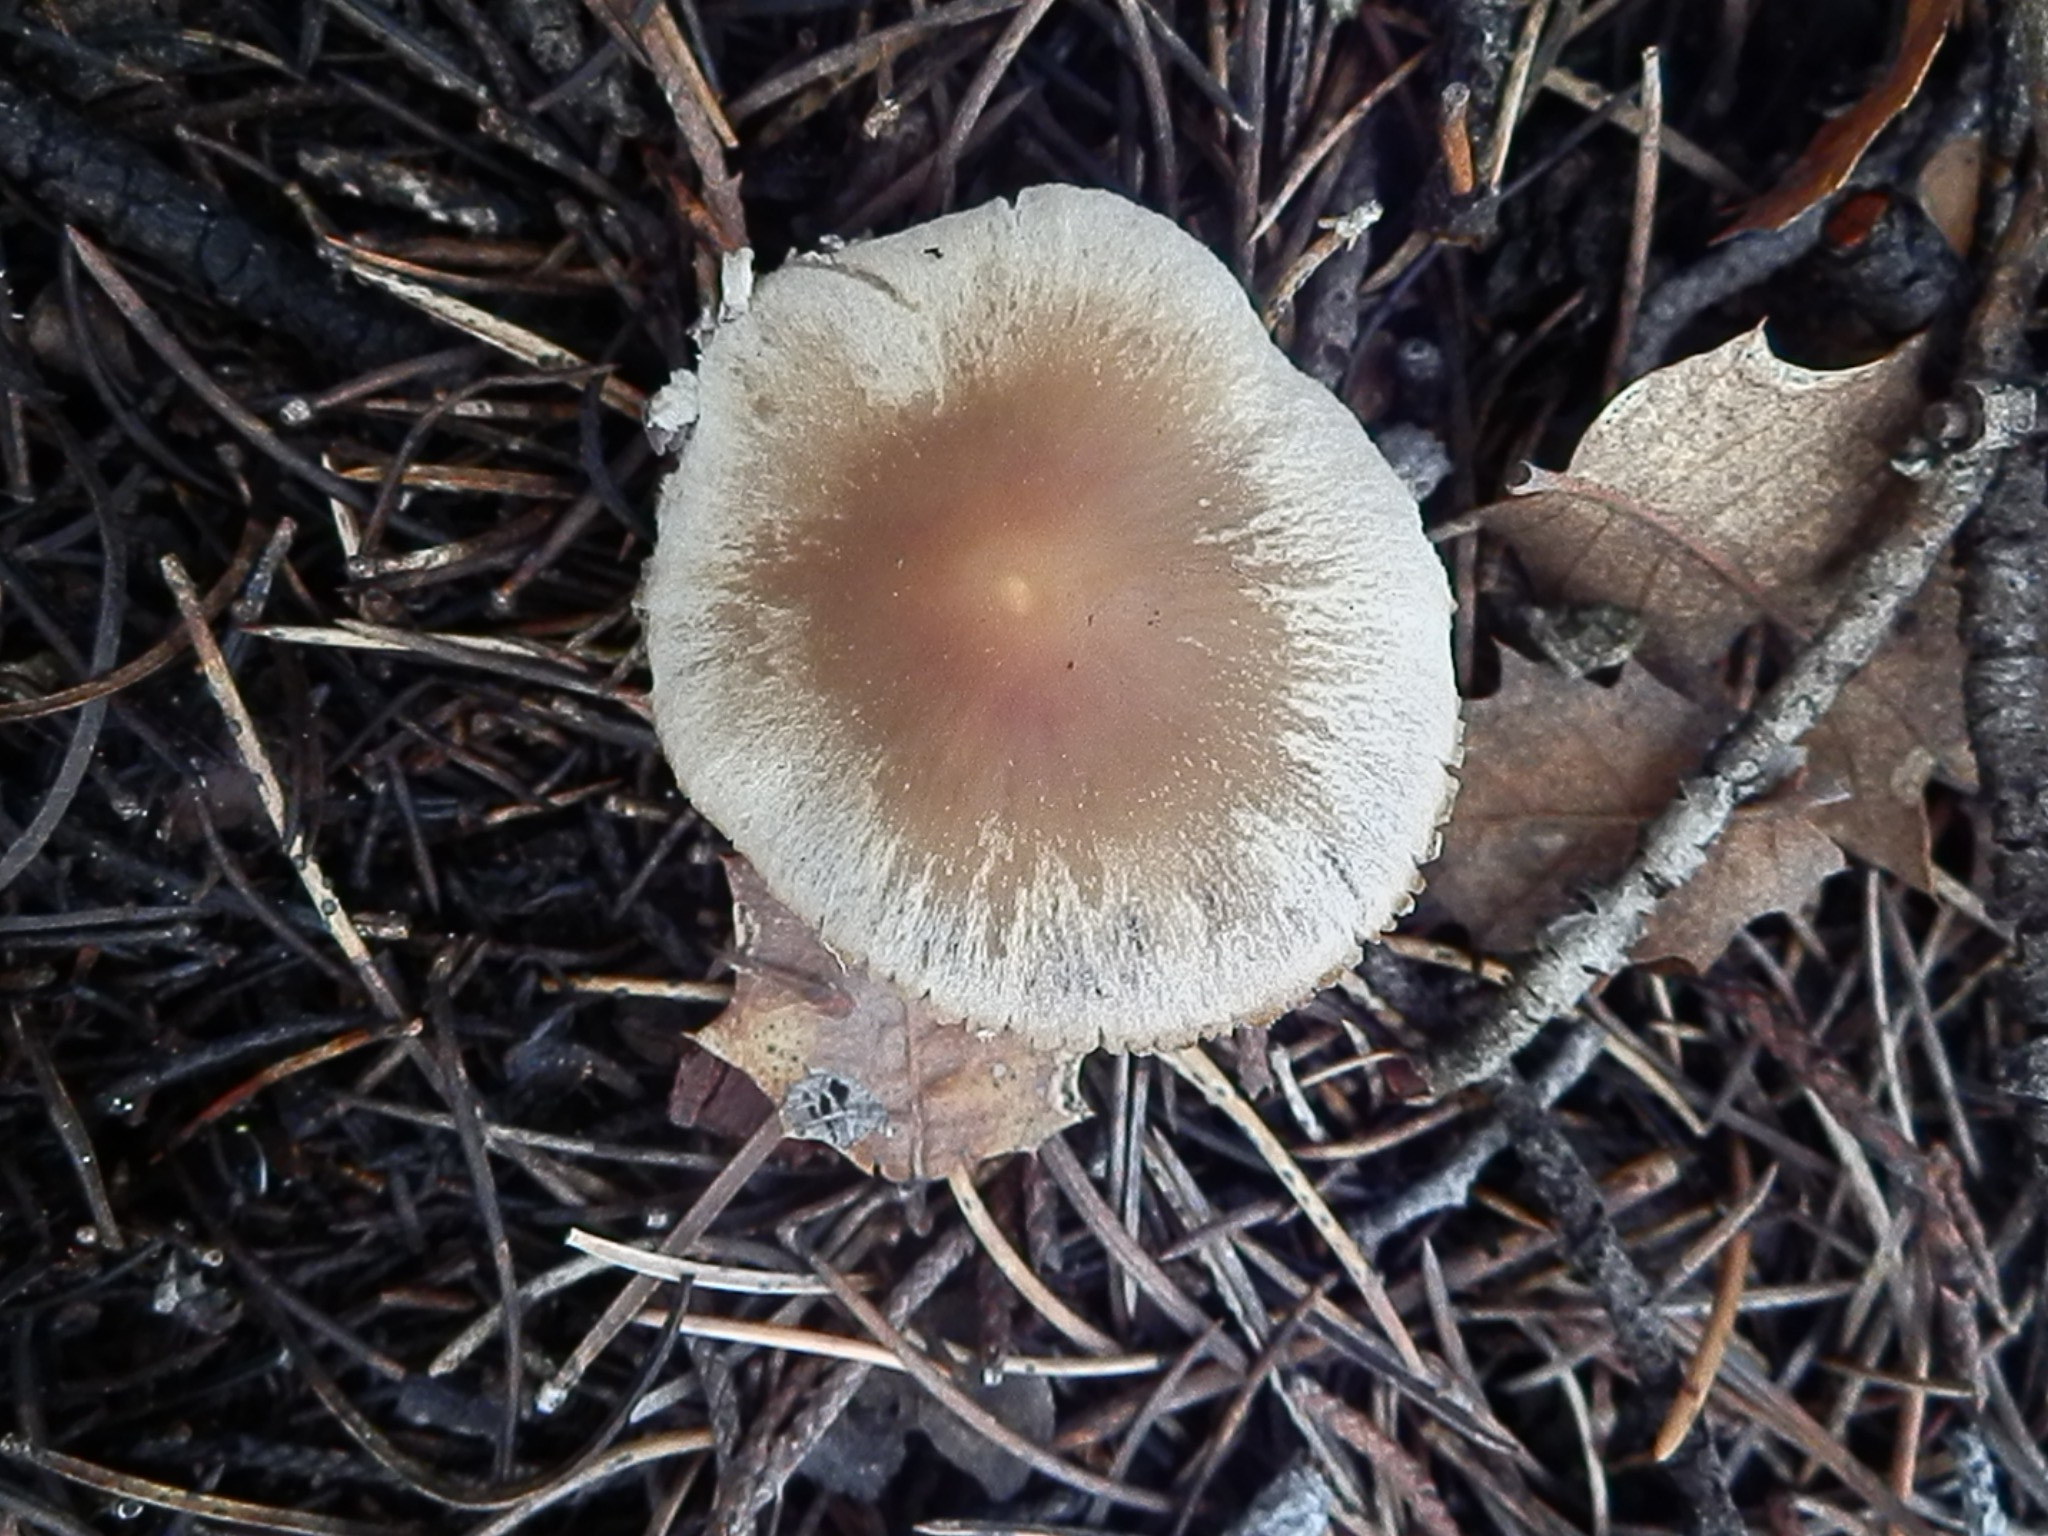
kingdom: Fungi
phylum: Basidiomycota
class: Agaricomycetes
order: Agaricales
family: Psathyrellaceae
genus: Candolleomyces
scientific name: Candolleomyces candolleanus
